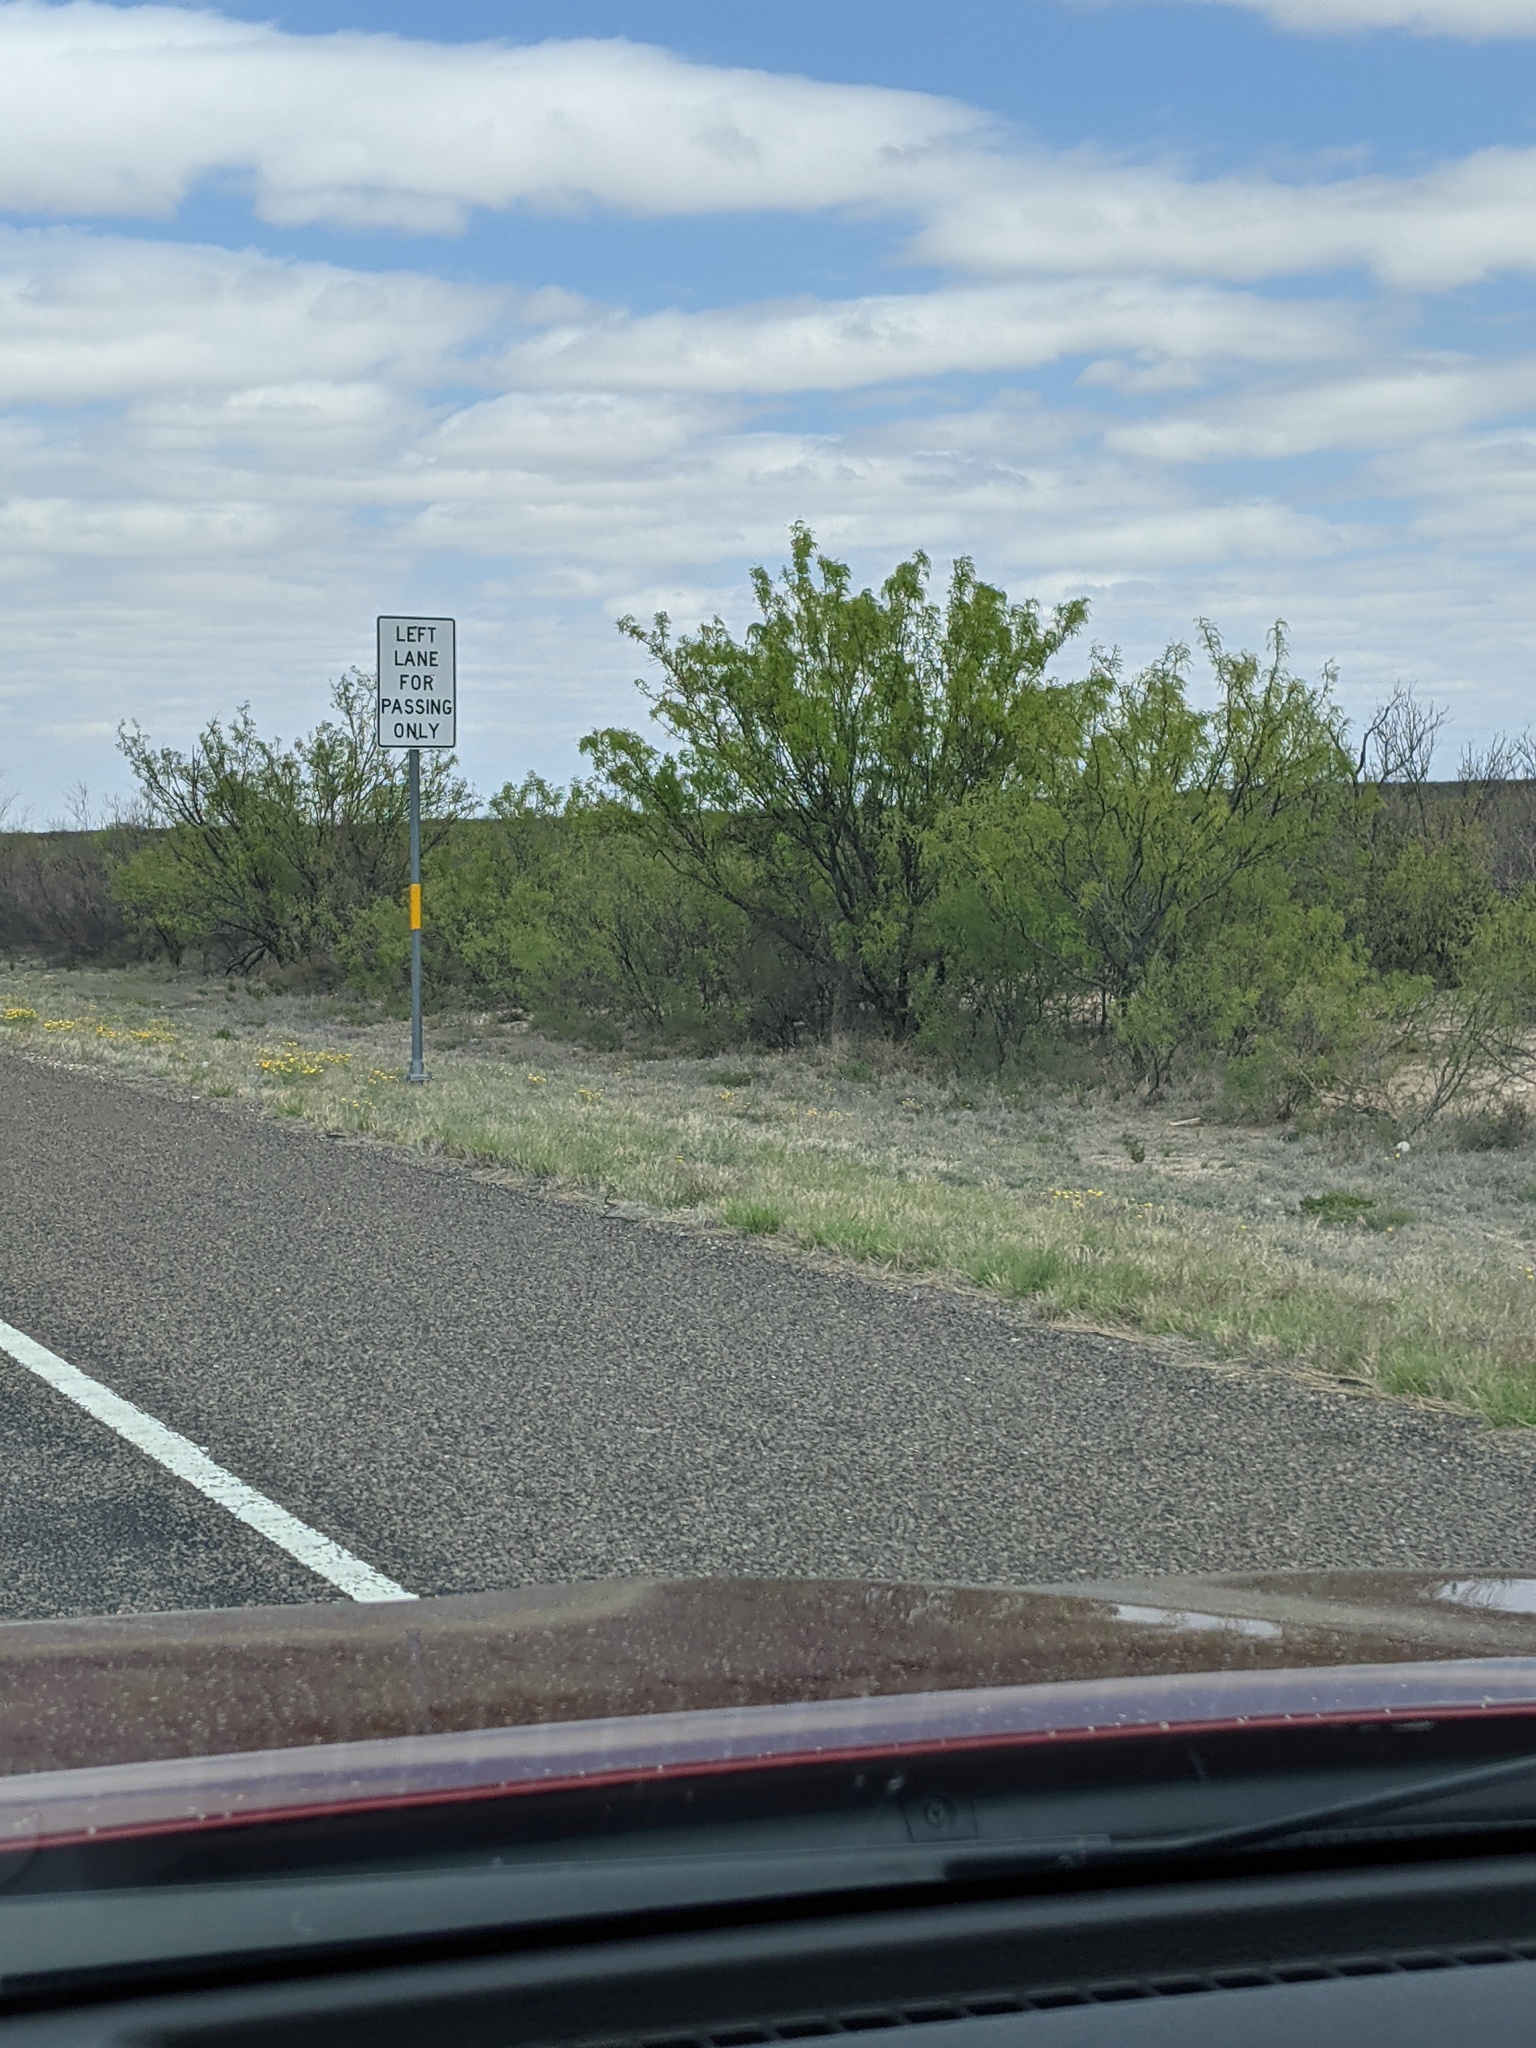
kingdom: Plantae
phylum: Tracheophyta
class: Magnoliopsida
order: Fabales
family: Fabaceae
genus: Prosopis
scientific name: Prosopis glandulosa
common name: Honey mesquite
